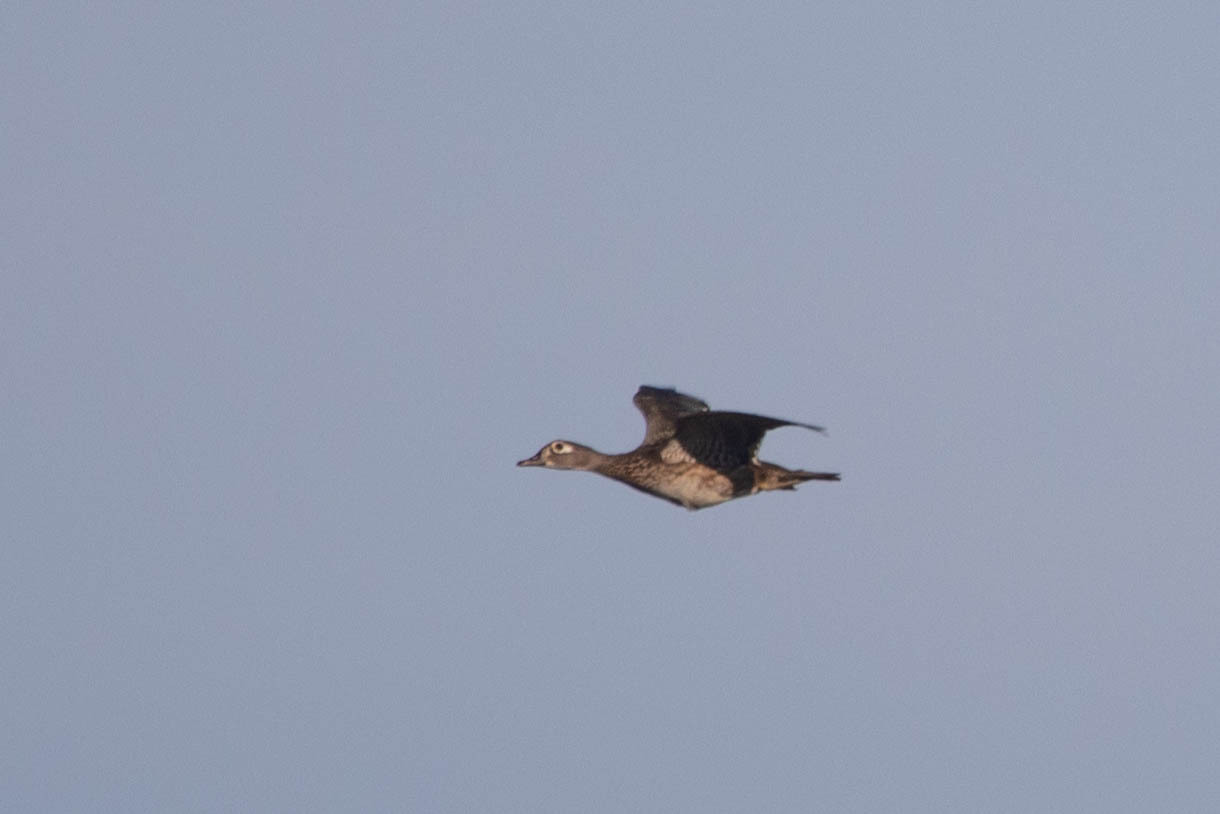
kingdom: Animalia
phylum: Chordata
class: Aves
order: Anseriformes
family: Anatidae
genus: Aix
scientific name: Aix sponsa
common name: Wood duck
